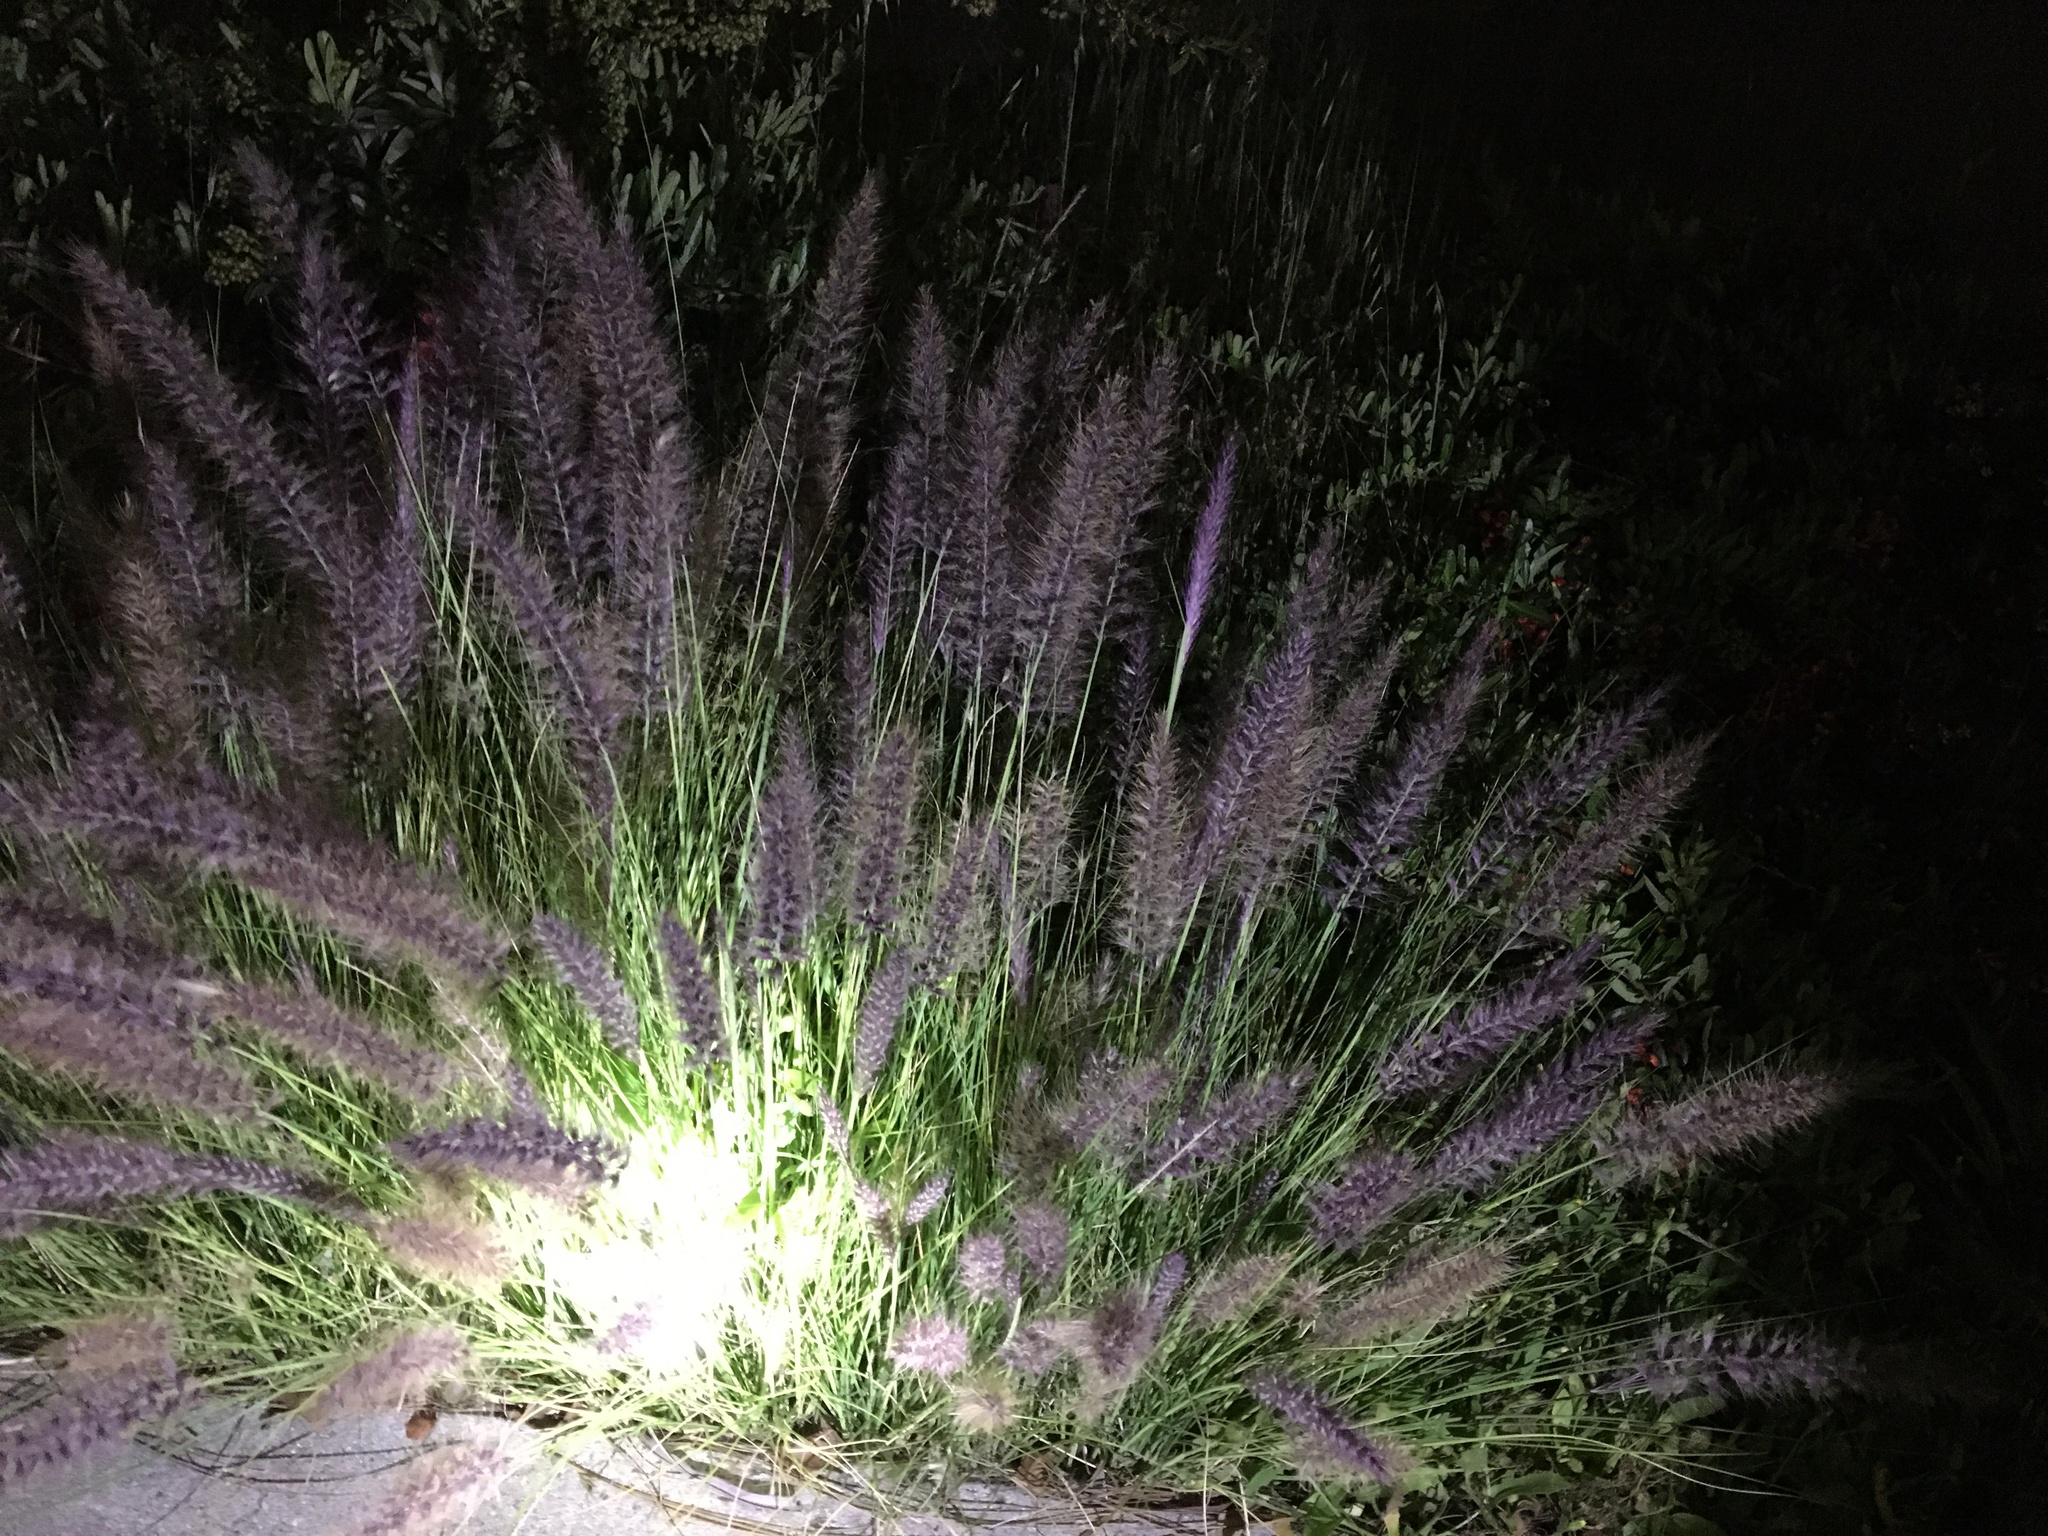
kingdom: Plantae
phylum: Tracheophyta
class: Liliopsida
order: Poales
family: Poaceae
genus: Cenchrus
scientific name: Cenchrus setaceus
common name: Crimson fountaingrass
